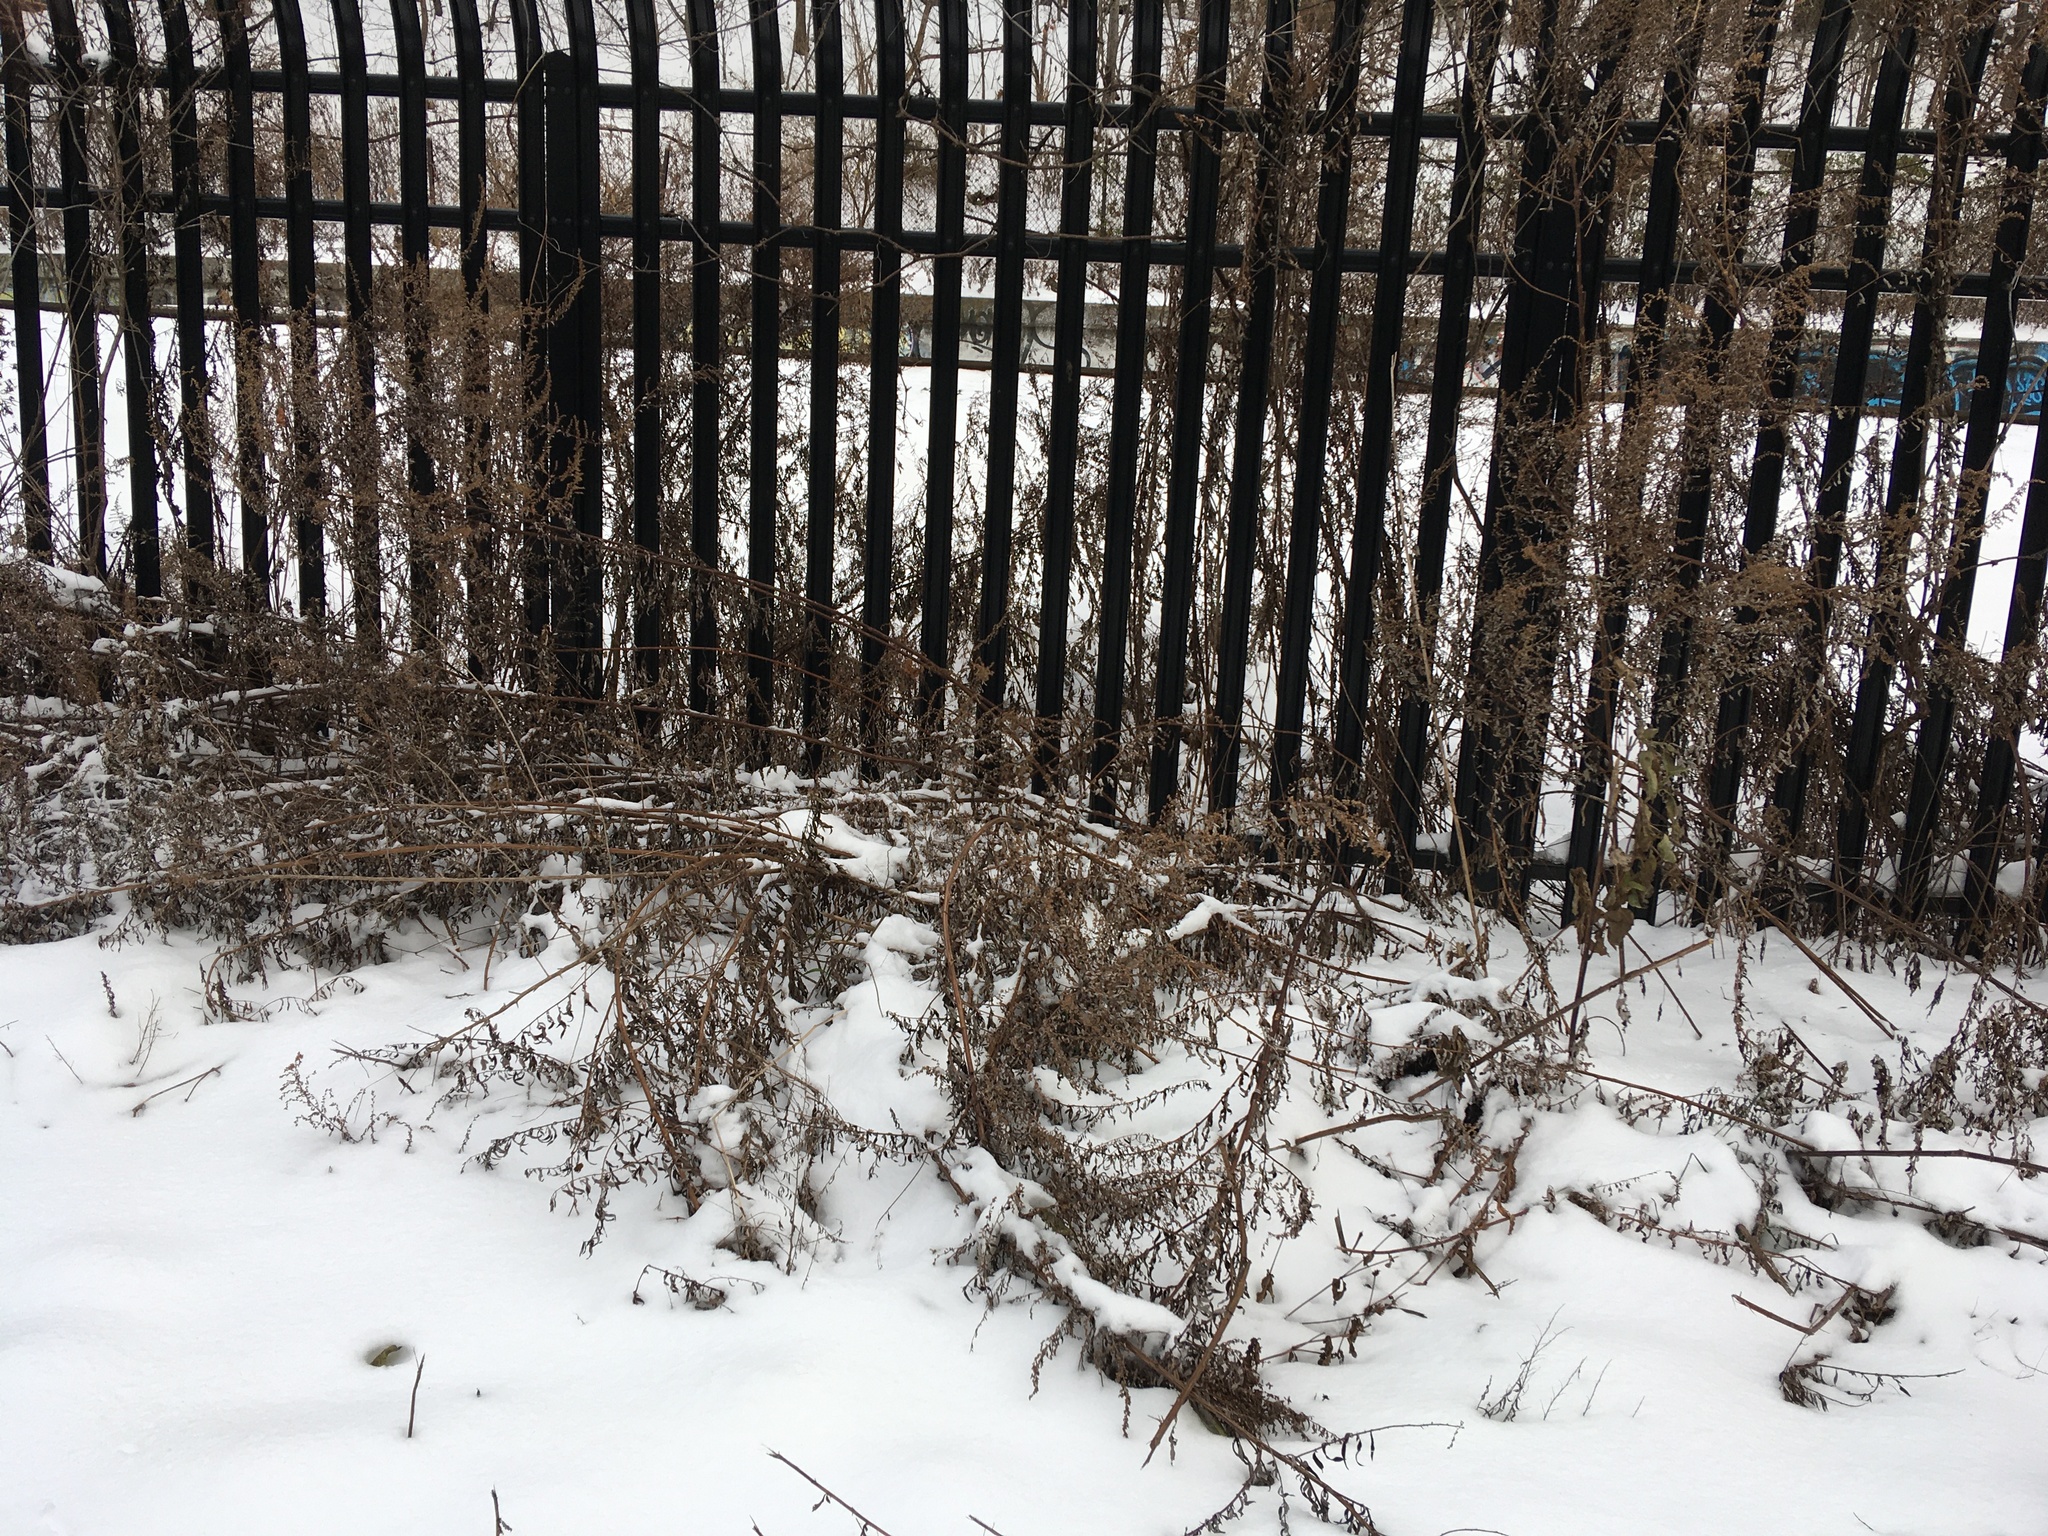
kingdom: Plantae
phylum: Tracheophyta
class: Magnoliopsida
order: Asterales
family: Asteraceae
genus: Artemisia
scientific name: Artemisia vulgaris
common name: Mugwort
